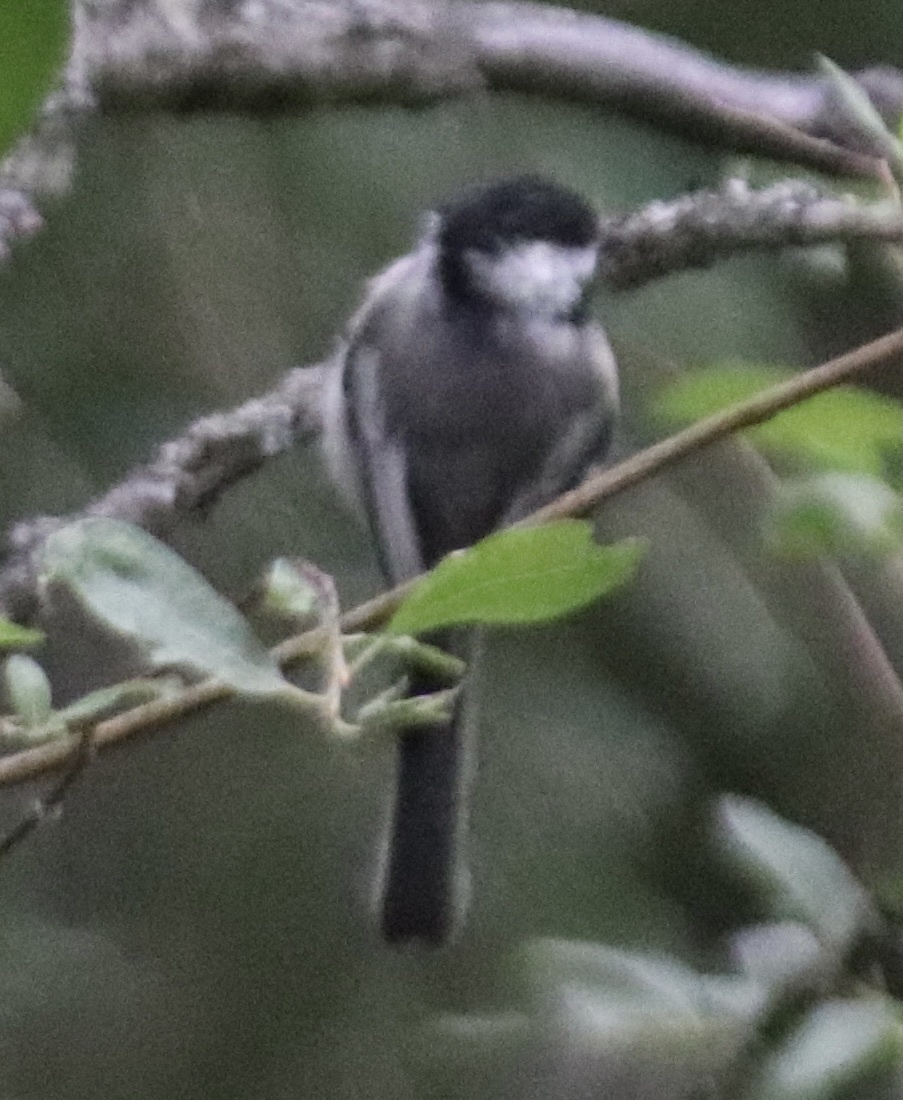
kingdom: Animalia
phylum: Chordata
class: Aves
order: Passeriformes
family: Paridae
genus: Poecile
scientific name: Poecile atricapillus
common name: Black-capped chickadee
